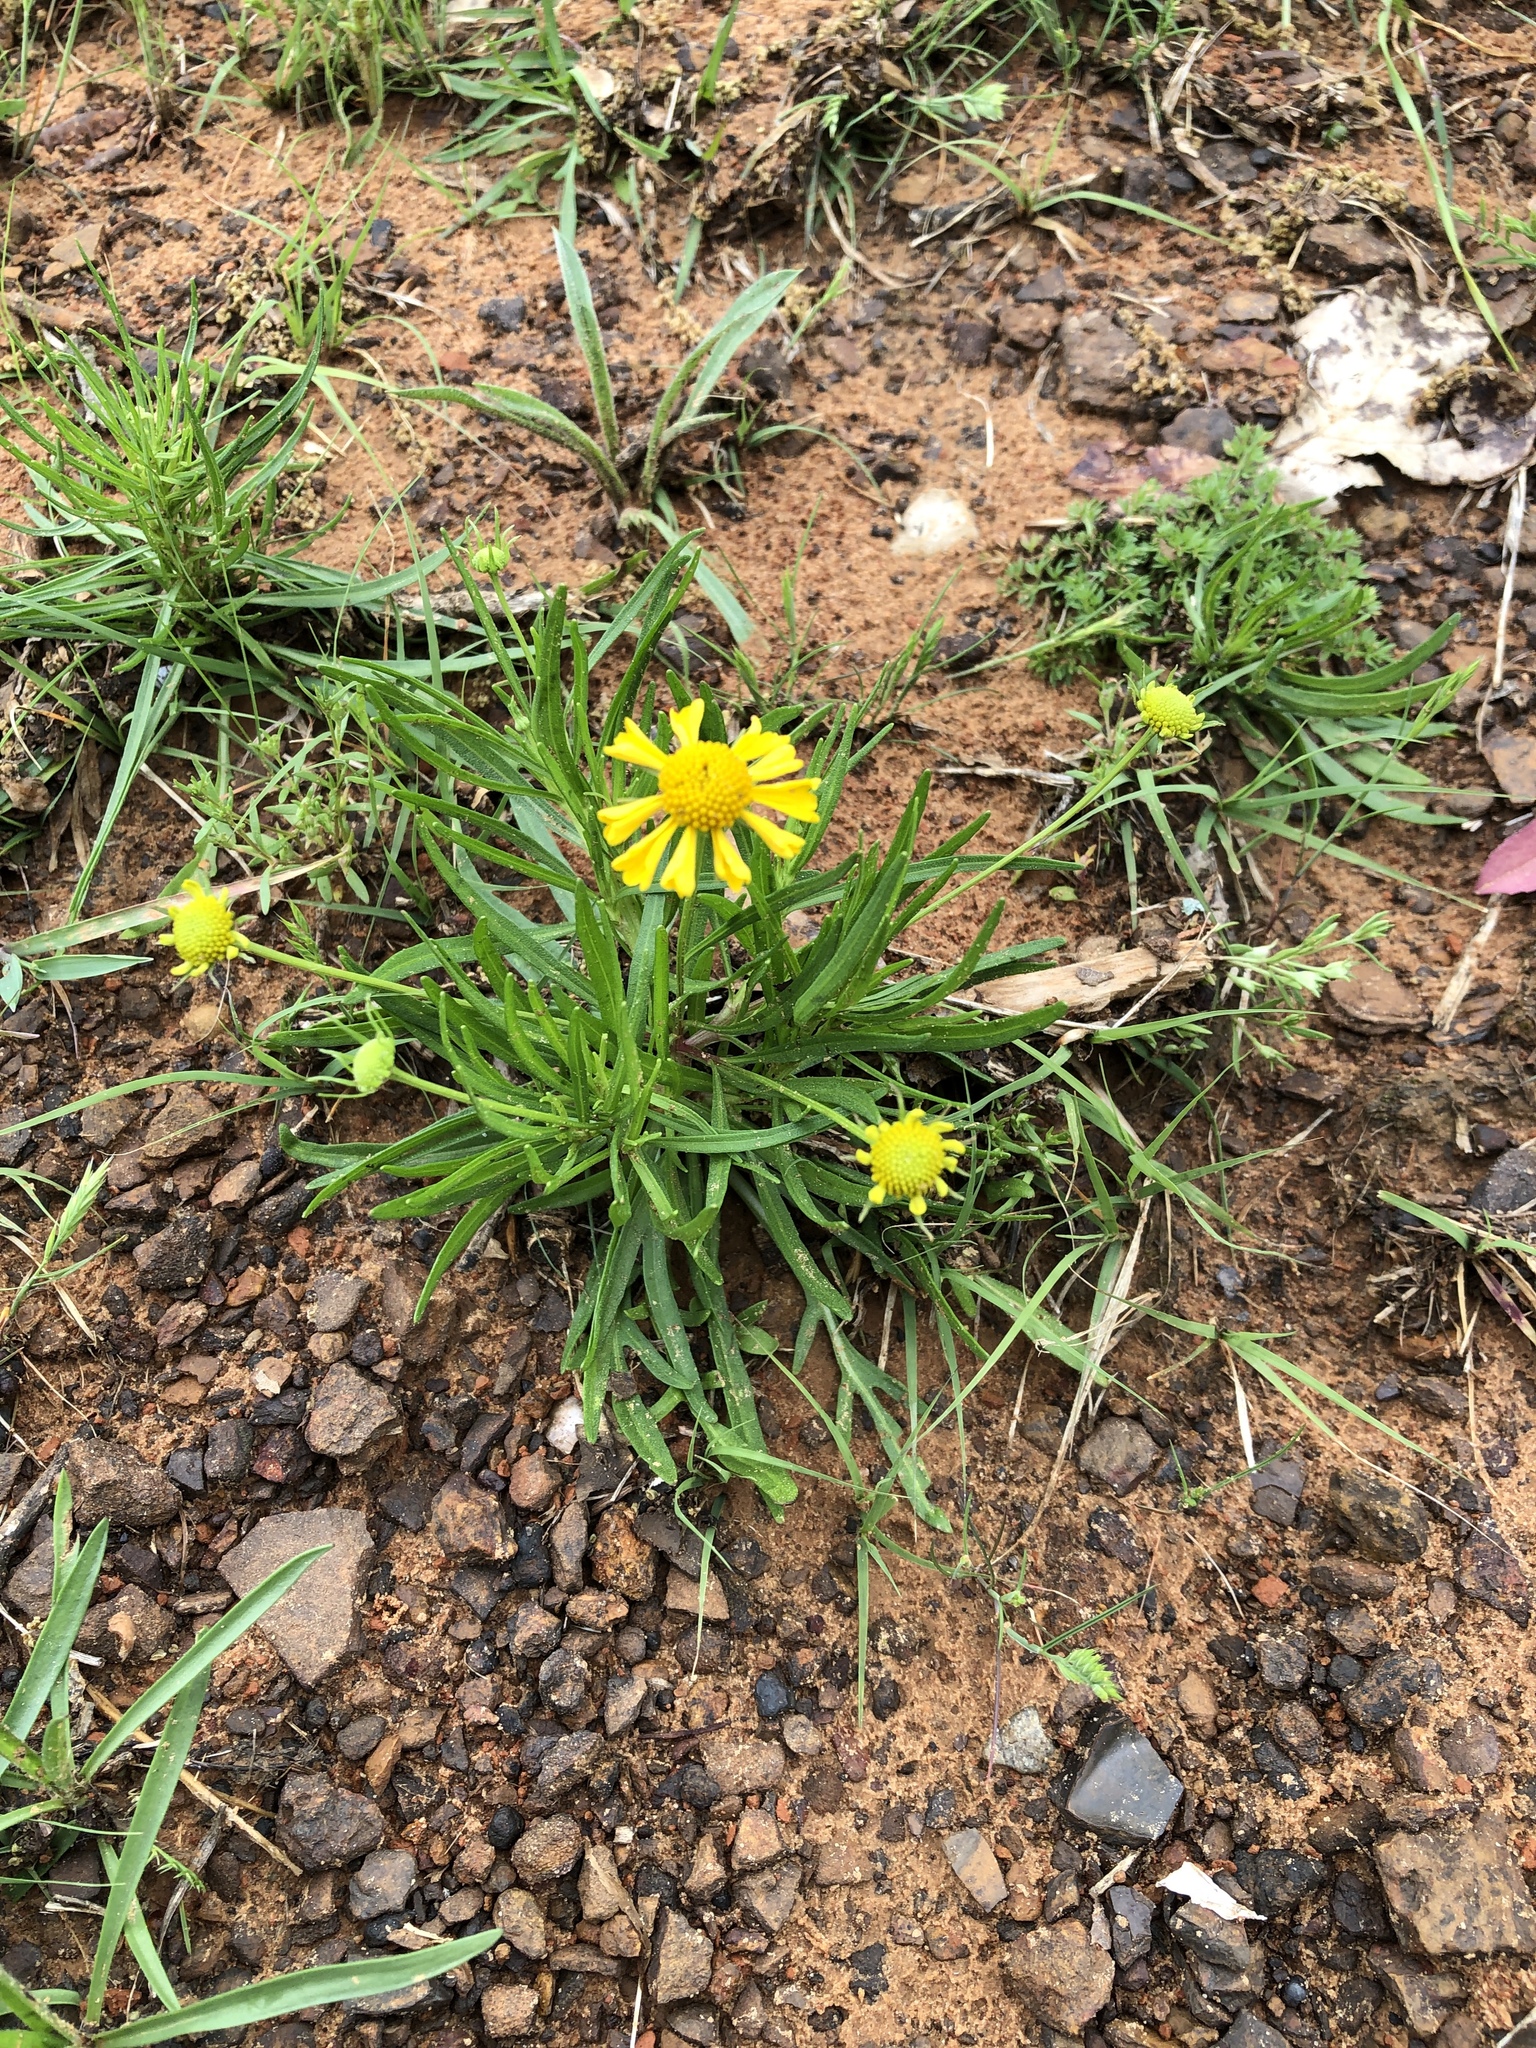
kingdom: Plantae
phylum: Tracheophyta
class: Magnoliopsida
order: Asterales
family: Asteraceae
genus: Helenium
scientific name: Helenium amarum
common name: Bitter sneezeweed
